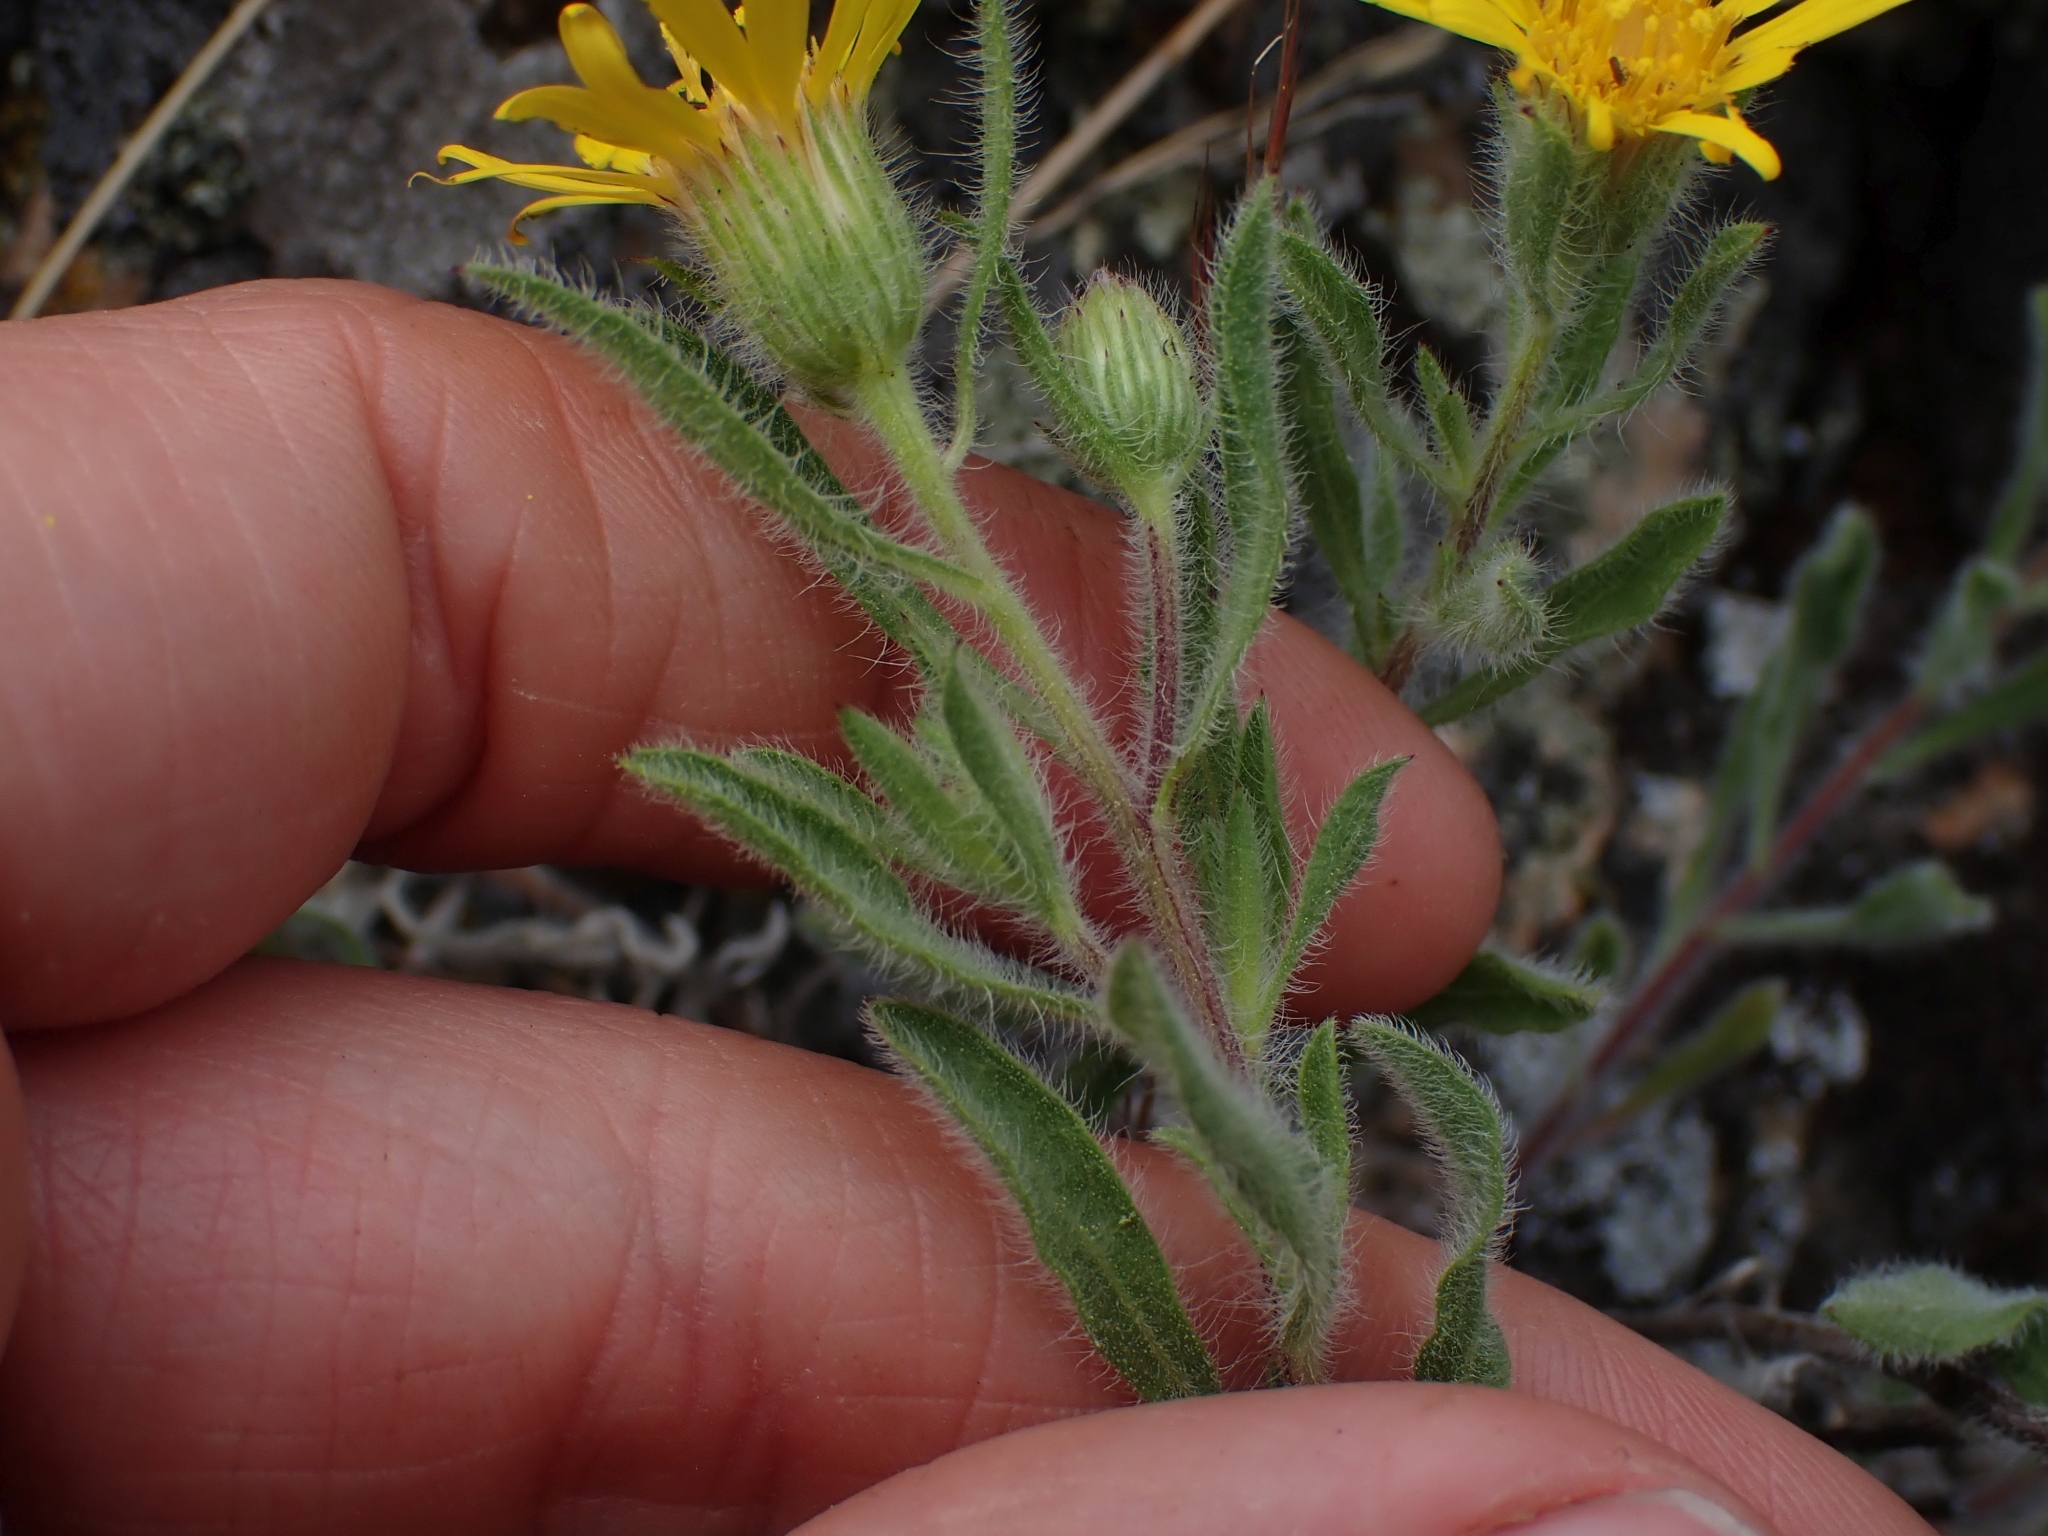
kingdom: Plantae
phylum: Tracheophyta
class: Magnoliopsida
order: Asterales
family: Asteraceae
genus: Heterotheca
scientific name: Heterotheca hirsuta
